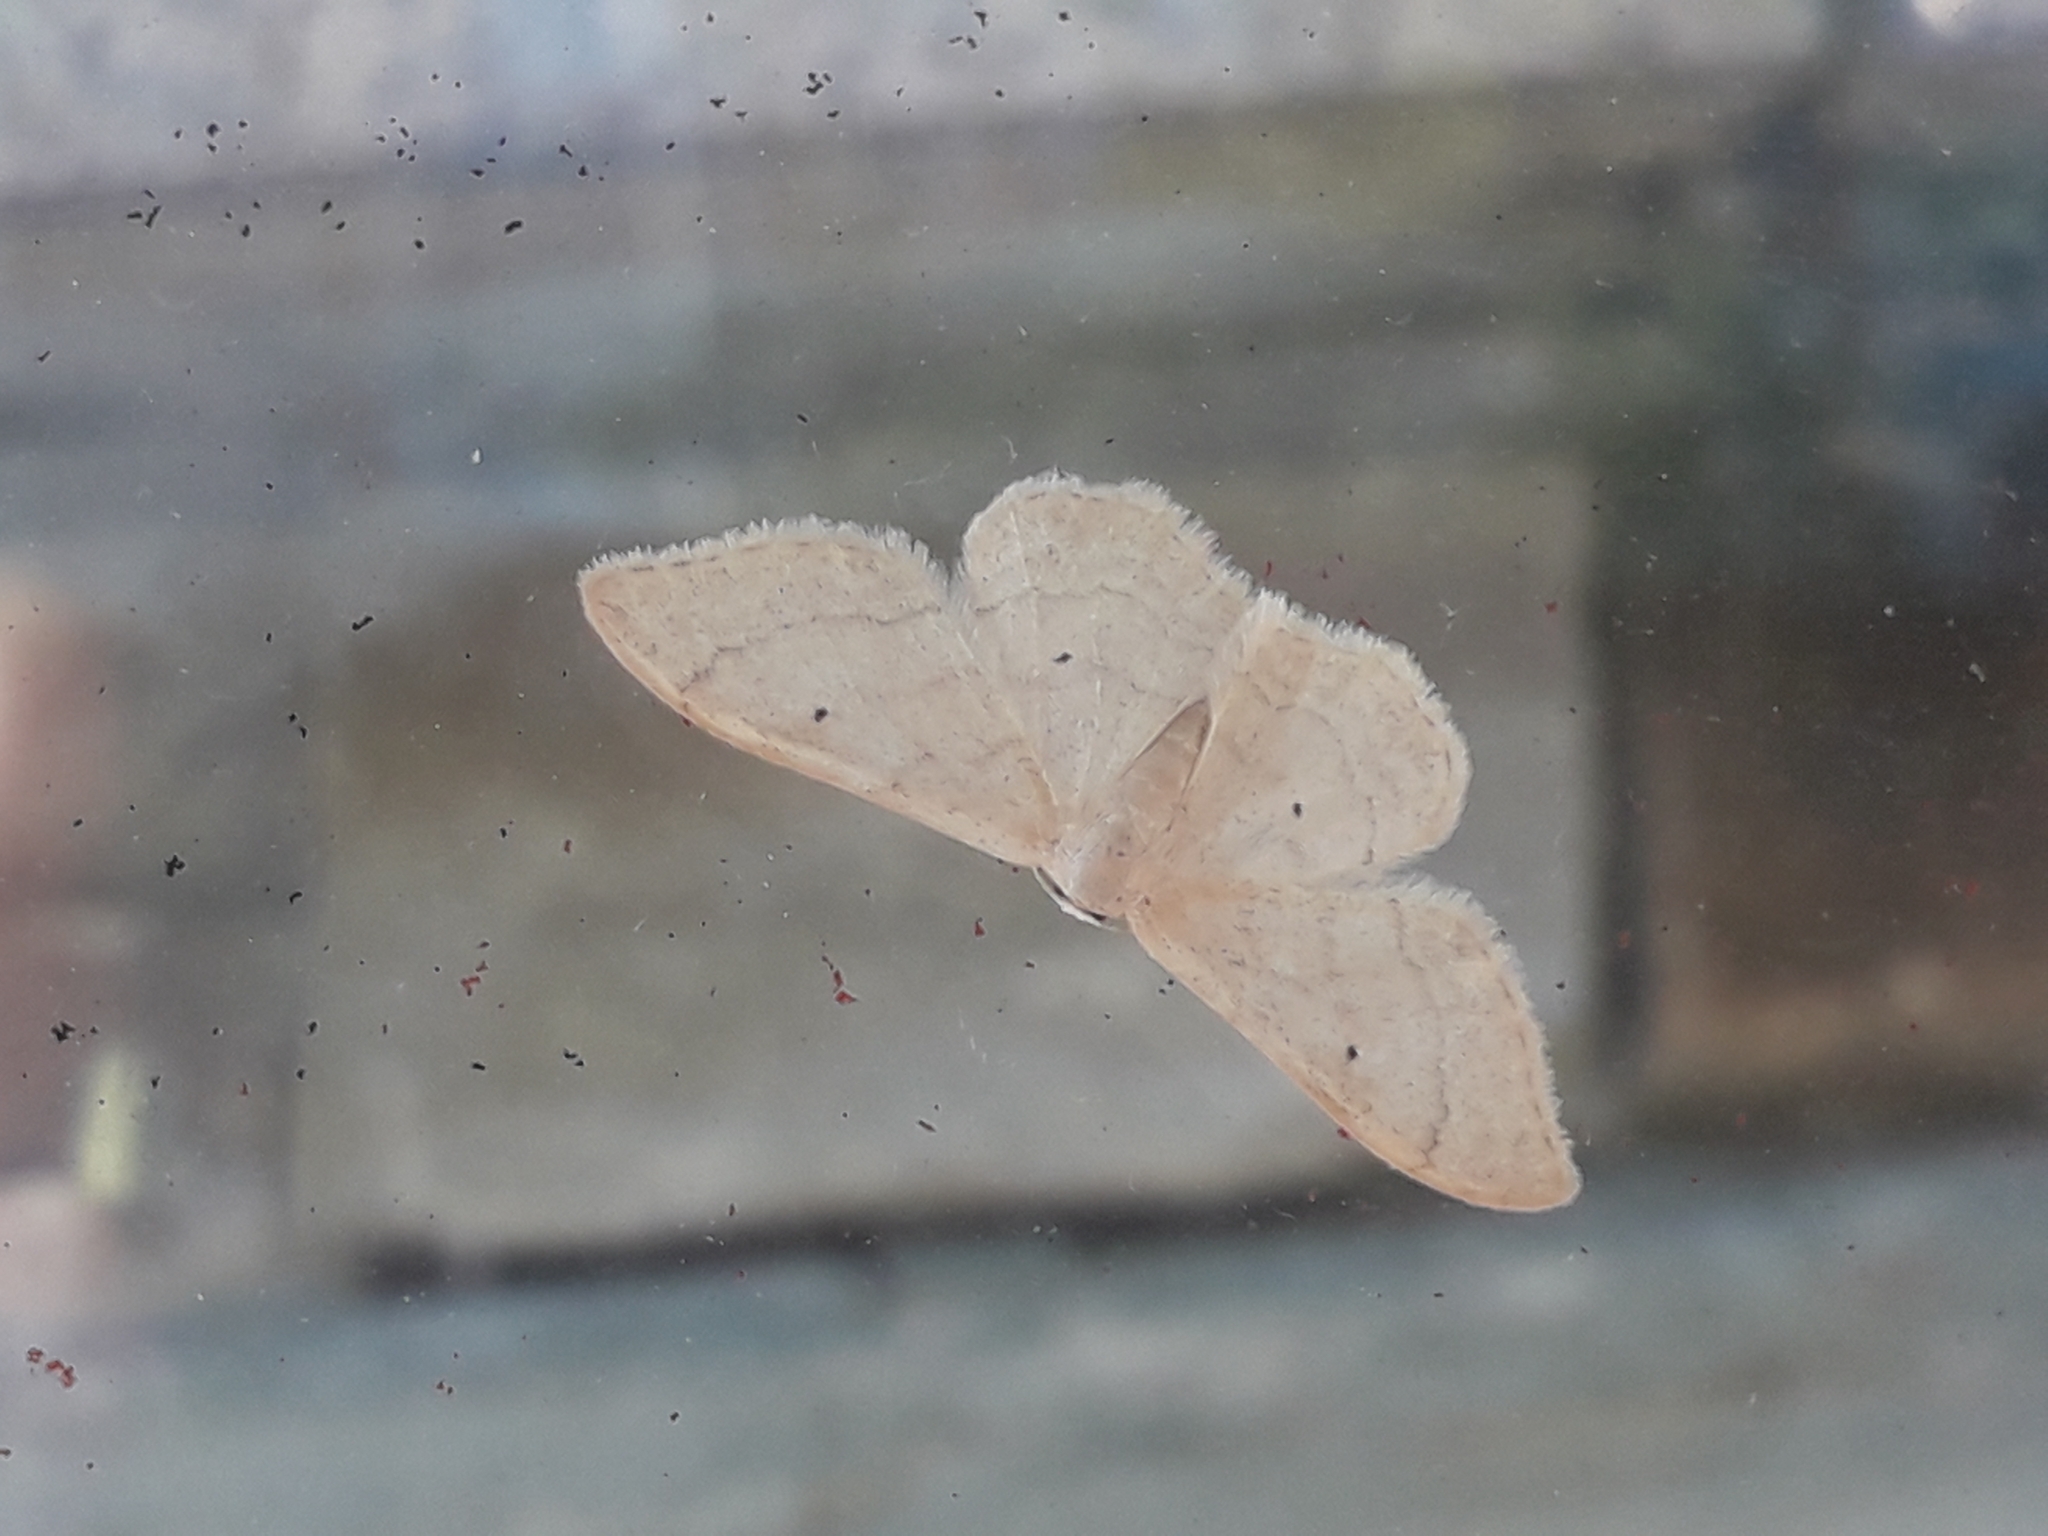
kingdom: Animalia
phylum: Arthropoda
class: Insecta
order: Lepidoptera
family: Geometridae
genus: Idaea
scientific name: Idaea straminata
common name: Plain wave
